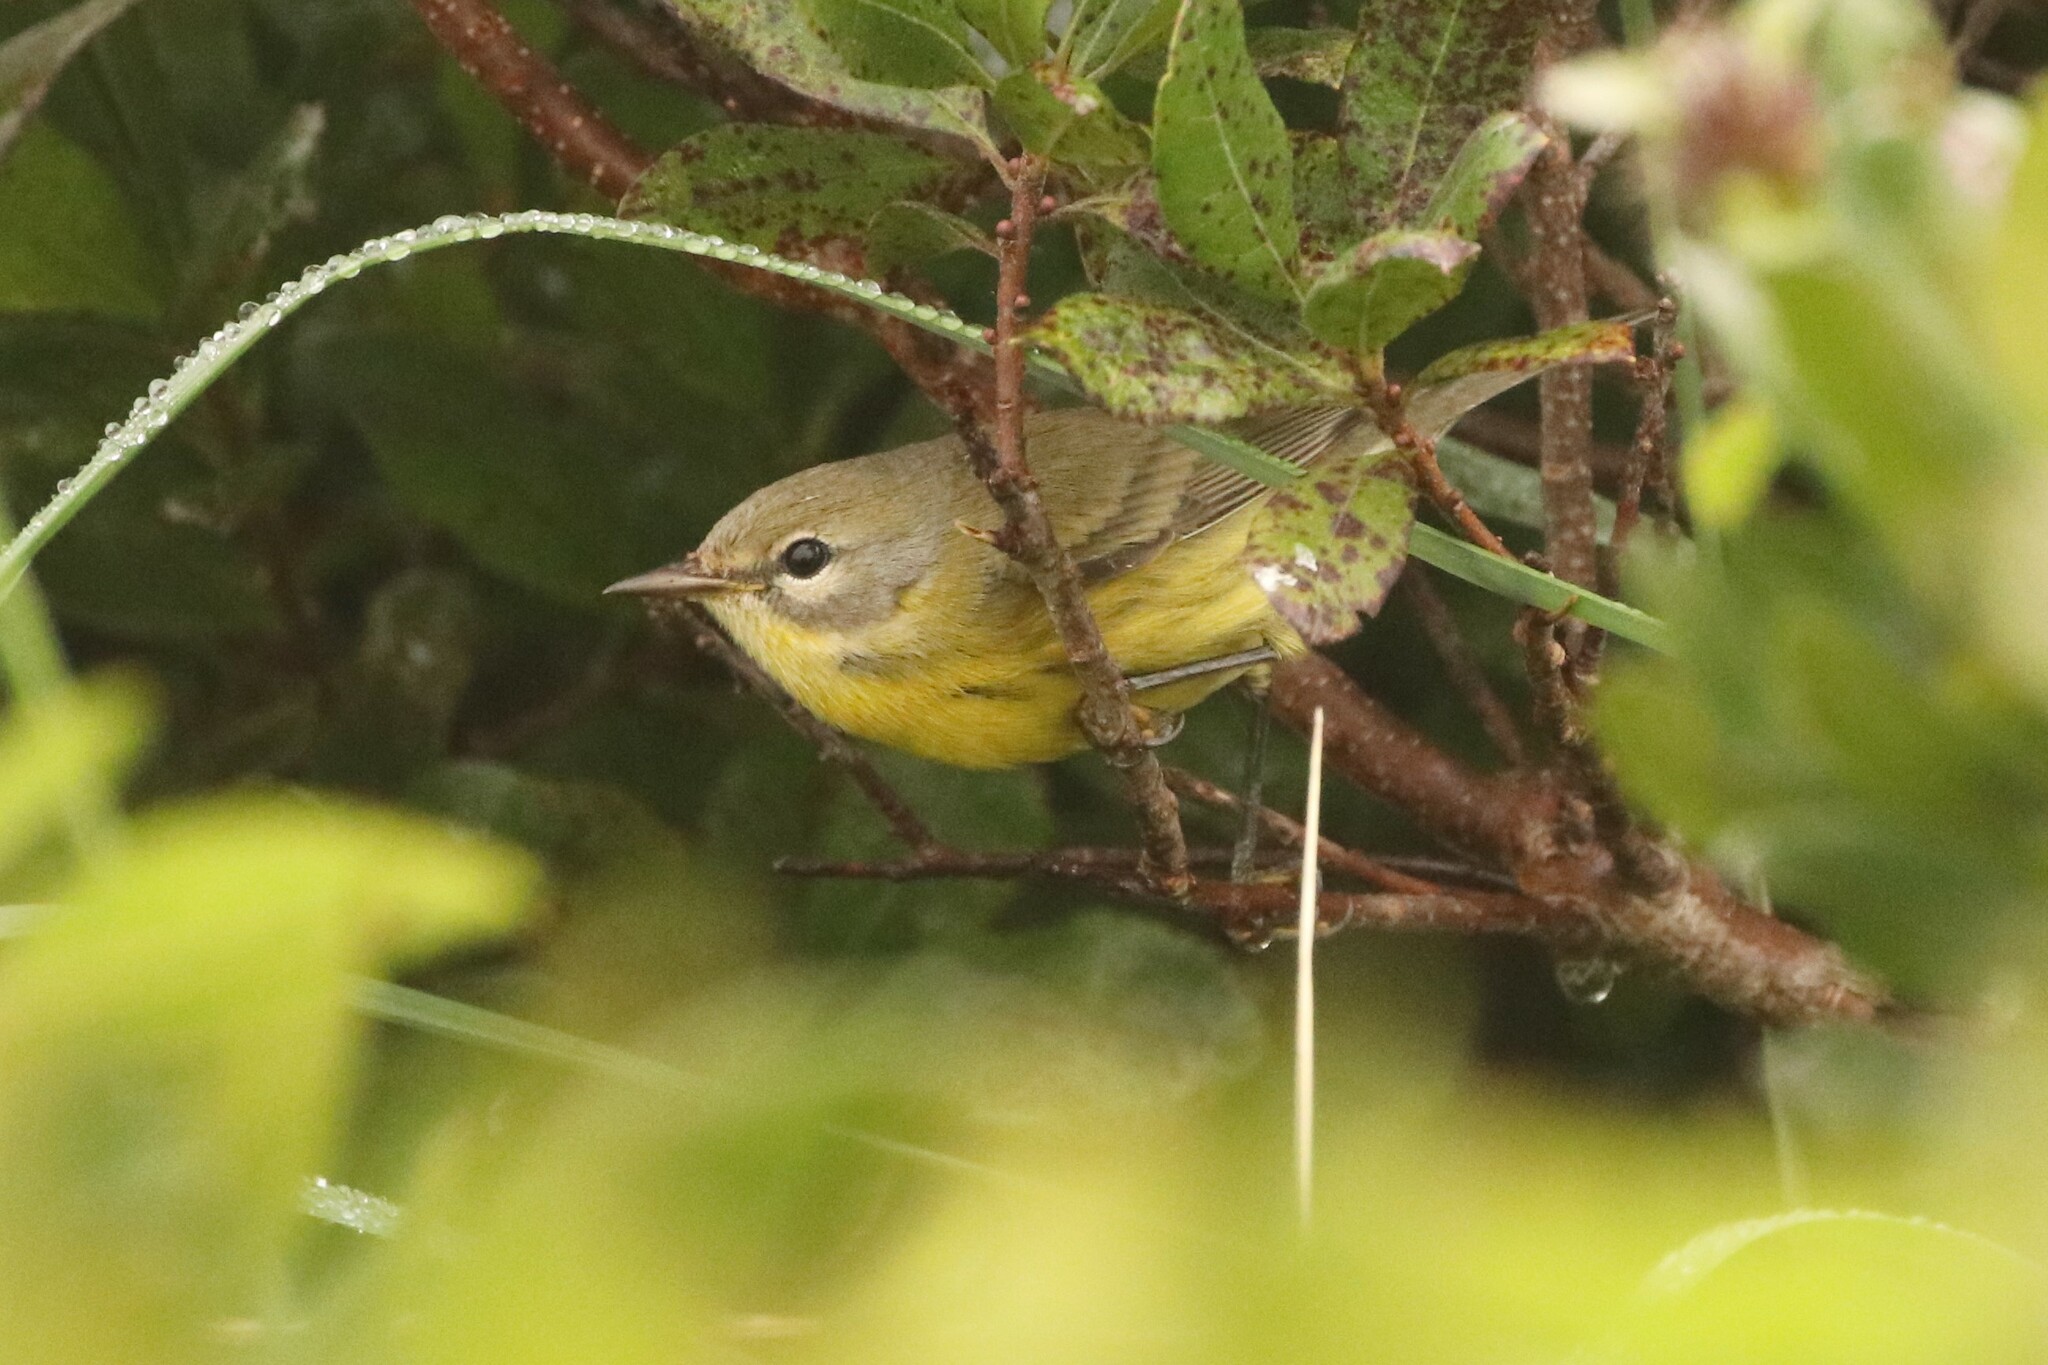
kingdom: Animalia
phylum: Chordata
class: Aves
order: Passeriformes
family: Parulidae
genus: Setophaga
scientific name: Setophaga discolor
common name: Prairie warbler
